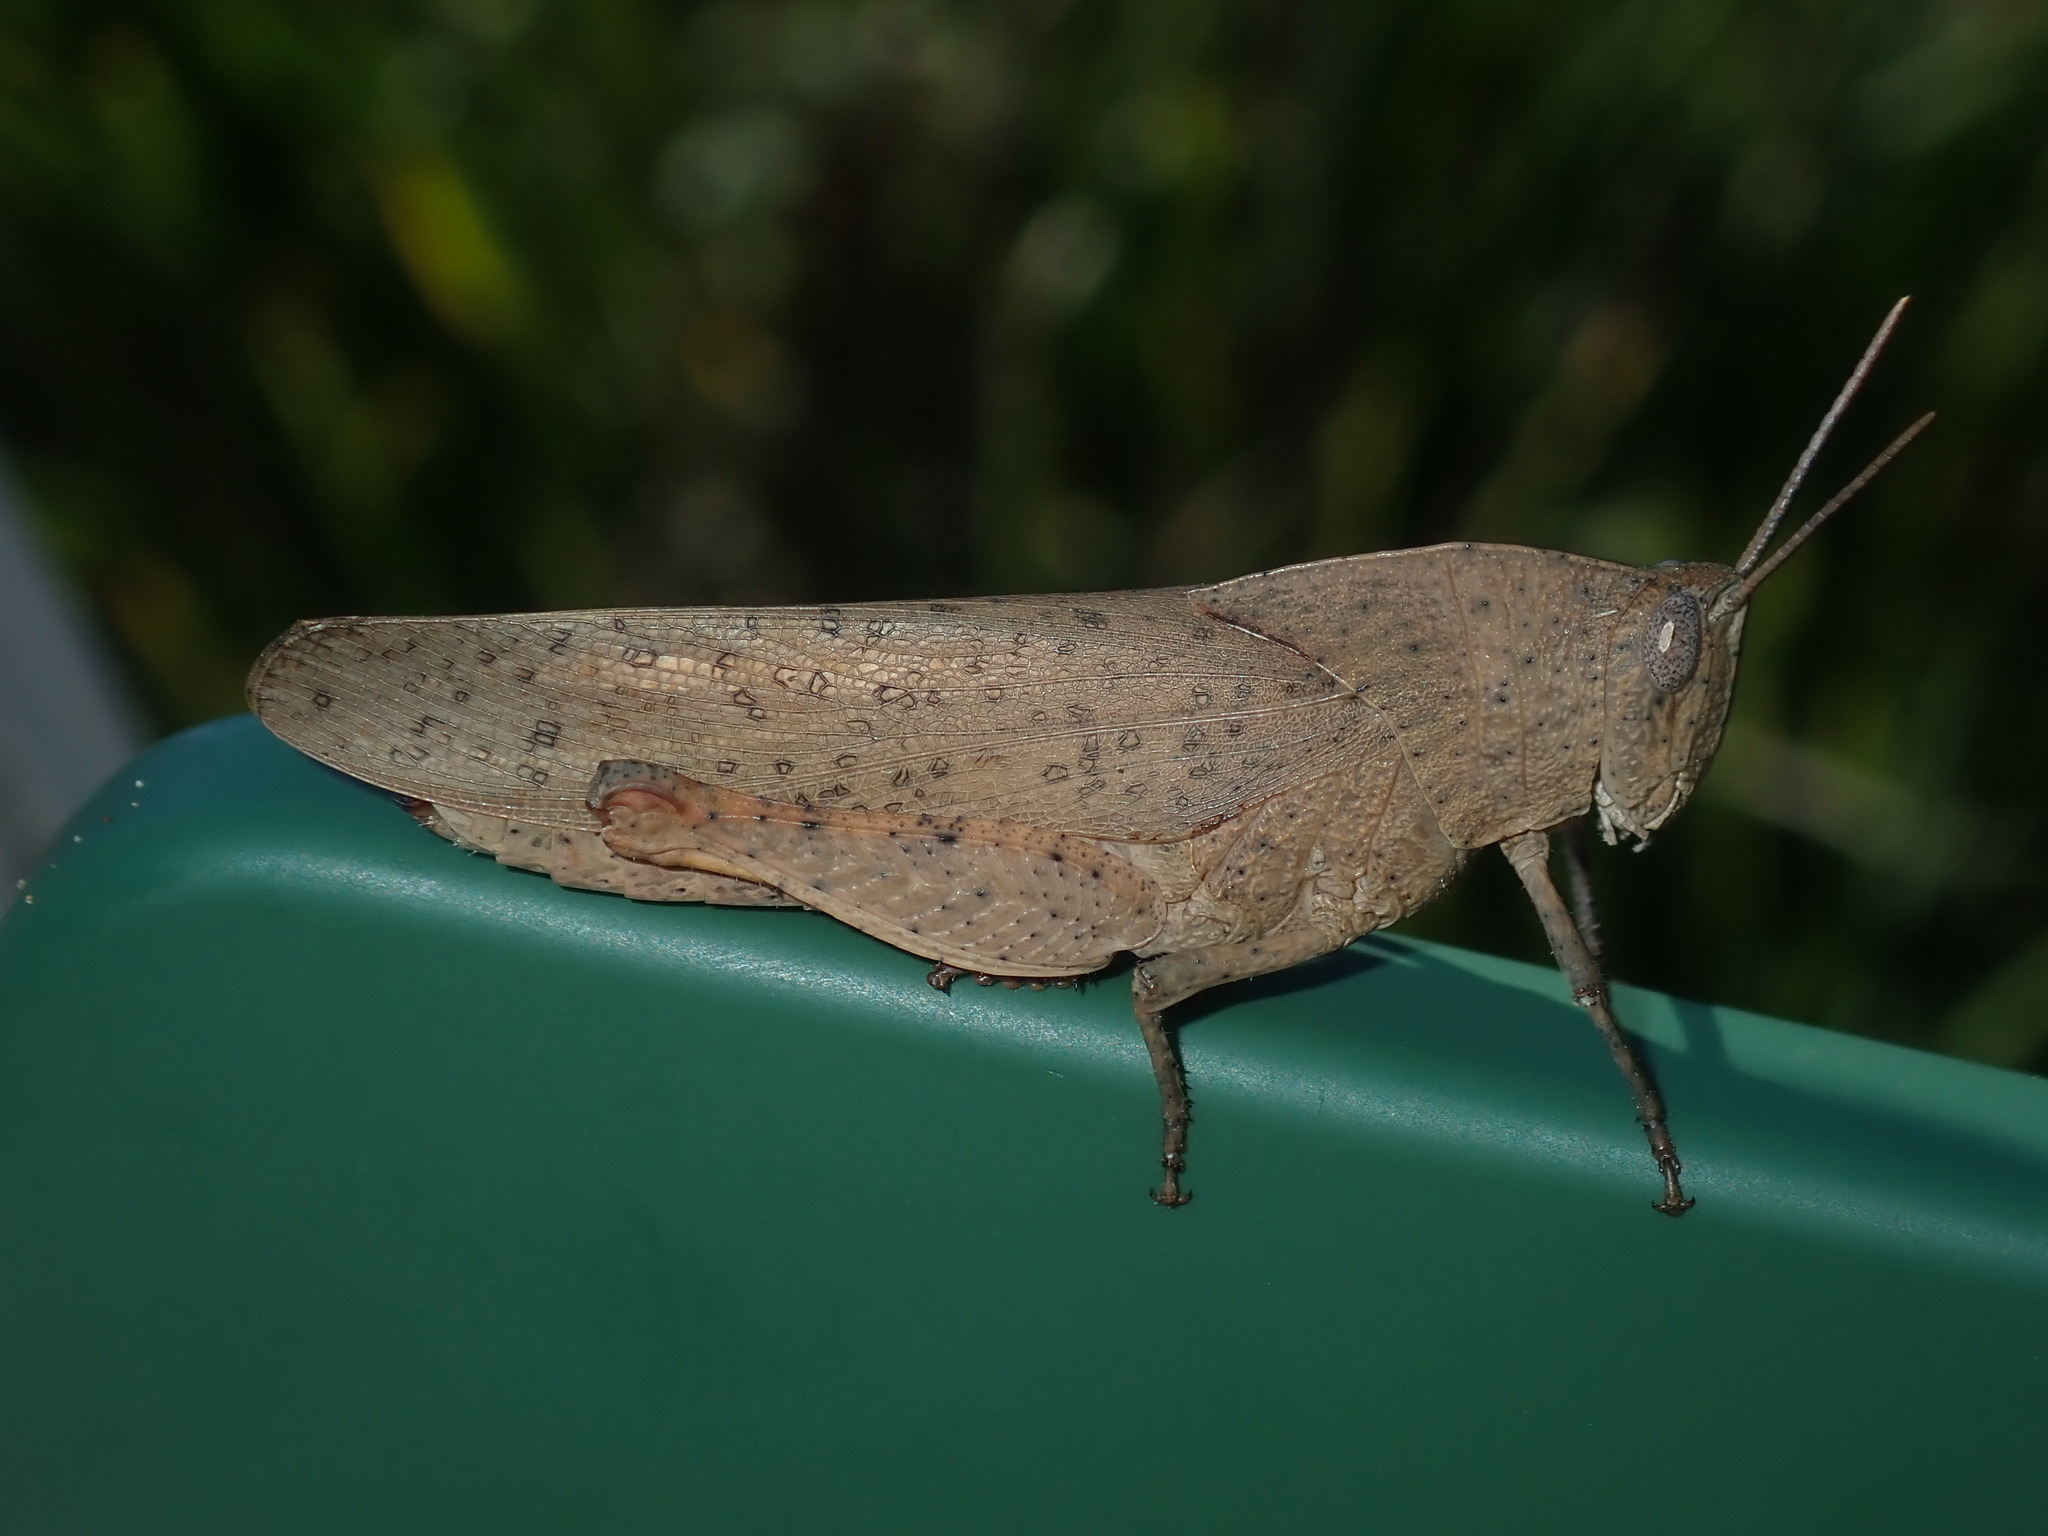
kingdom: Animalia
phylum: Arthropoda
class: Insecta
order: Orthoptera
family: Acrididae
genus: Goniaea
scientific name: Goniaea australasiae
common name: Gumleaf grasshopper
